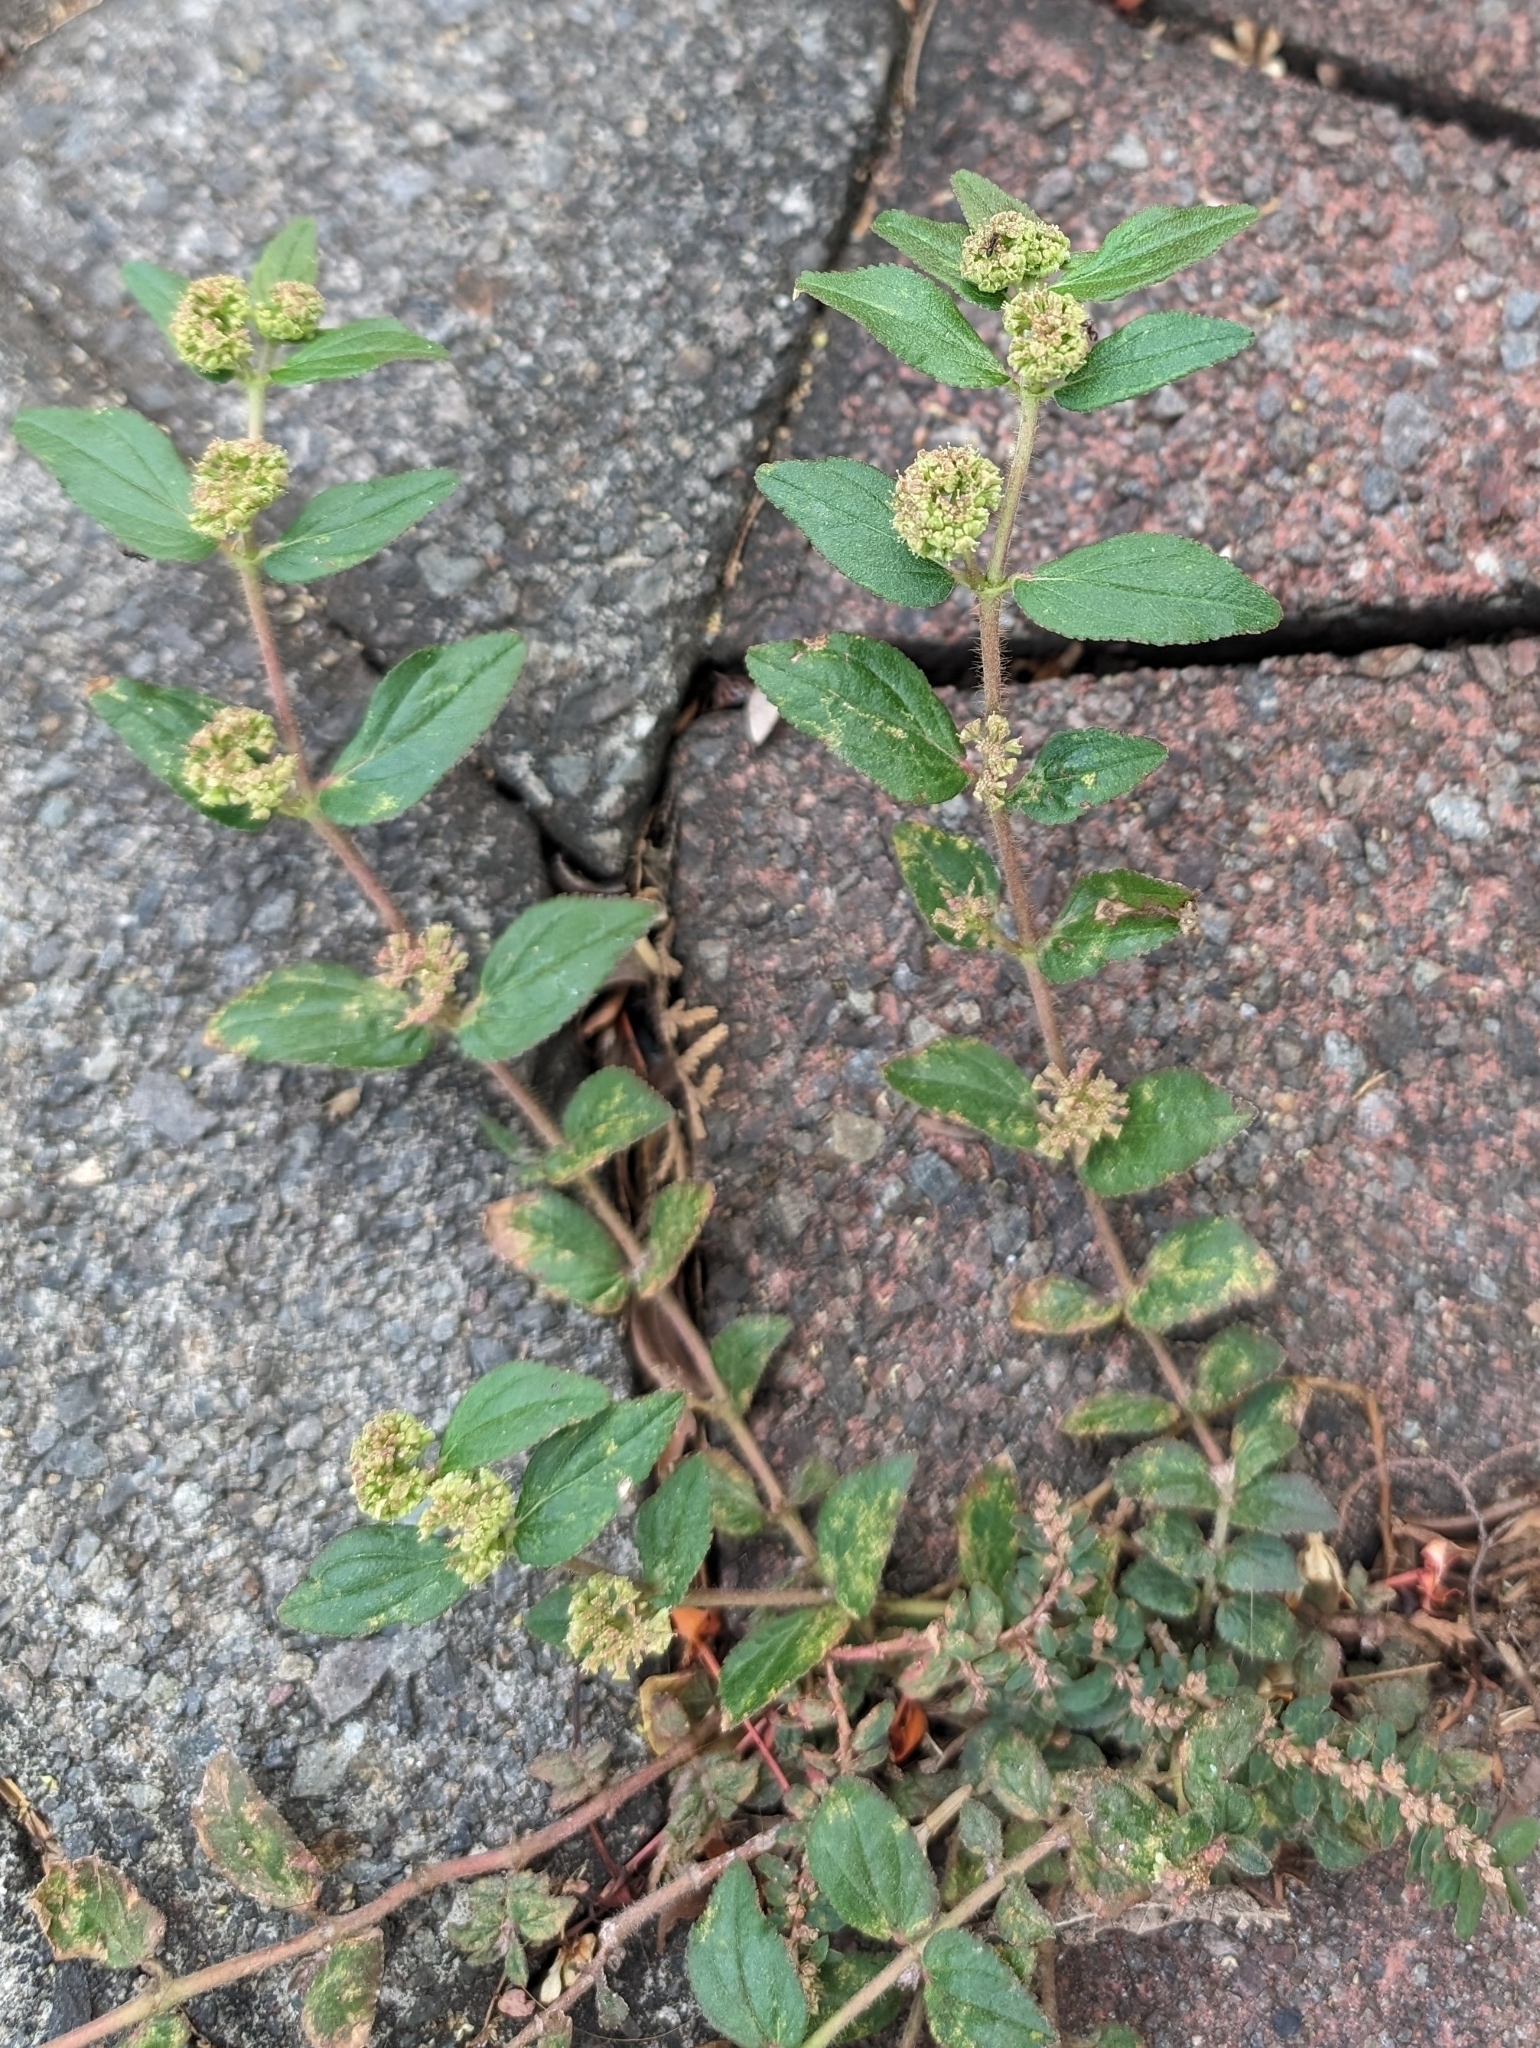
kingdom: Plantae
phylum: Tracheophyta
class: Magnoliopsida
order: Malpighiales
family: Euphorbiaceae
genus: Euphorbia
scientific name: Euphorbia hirta
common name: Pillpod sandmat
